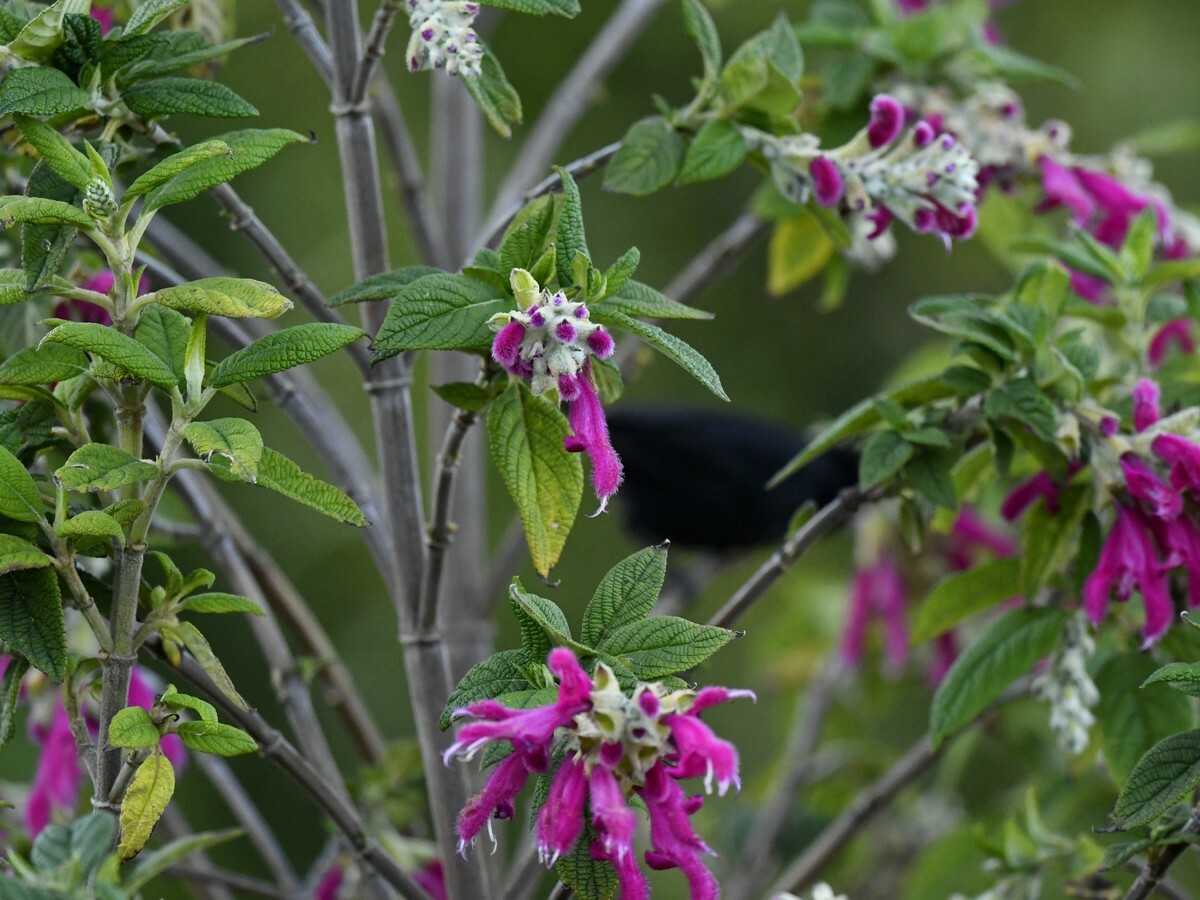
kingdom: Plantae
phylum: Tracheophyta
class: Magnoliopsida
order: Lamiales
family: Lamiaceae
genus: Salvia
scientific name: Salvia tortuosa
